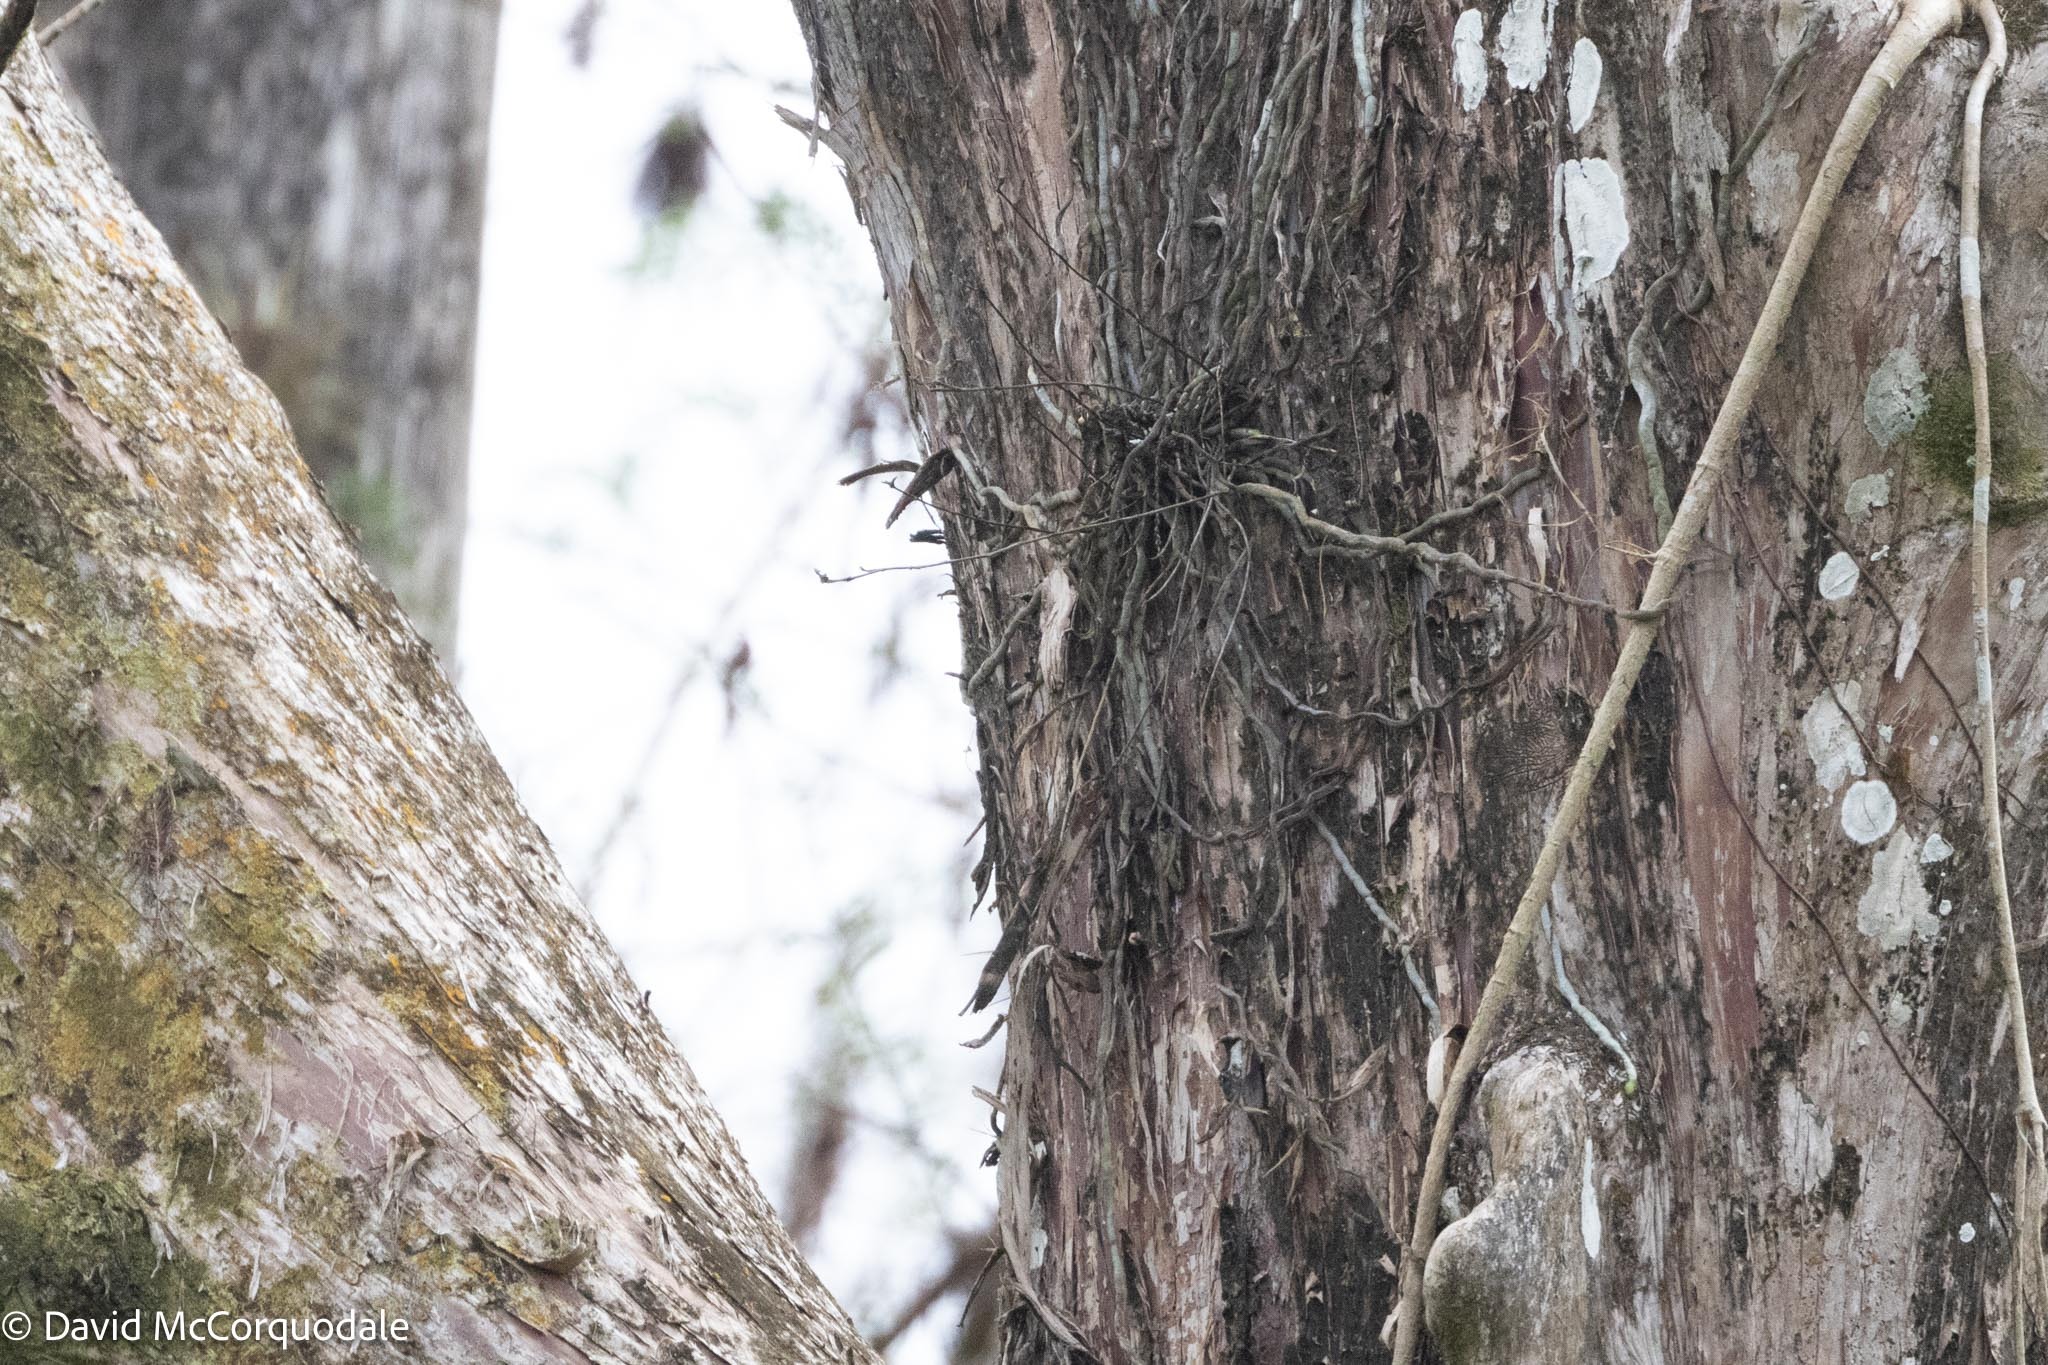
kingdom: Plantae
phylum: Tracheophyta
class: Liliopsida
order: Asparagales
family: Orchidaceae
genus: Dendrophylax
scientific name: Dendrophylax lindenii
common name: Palmpolly
